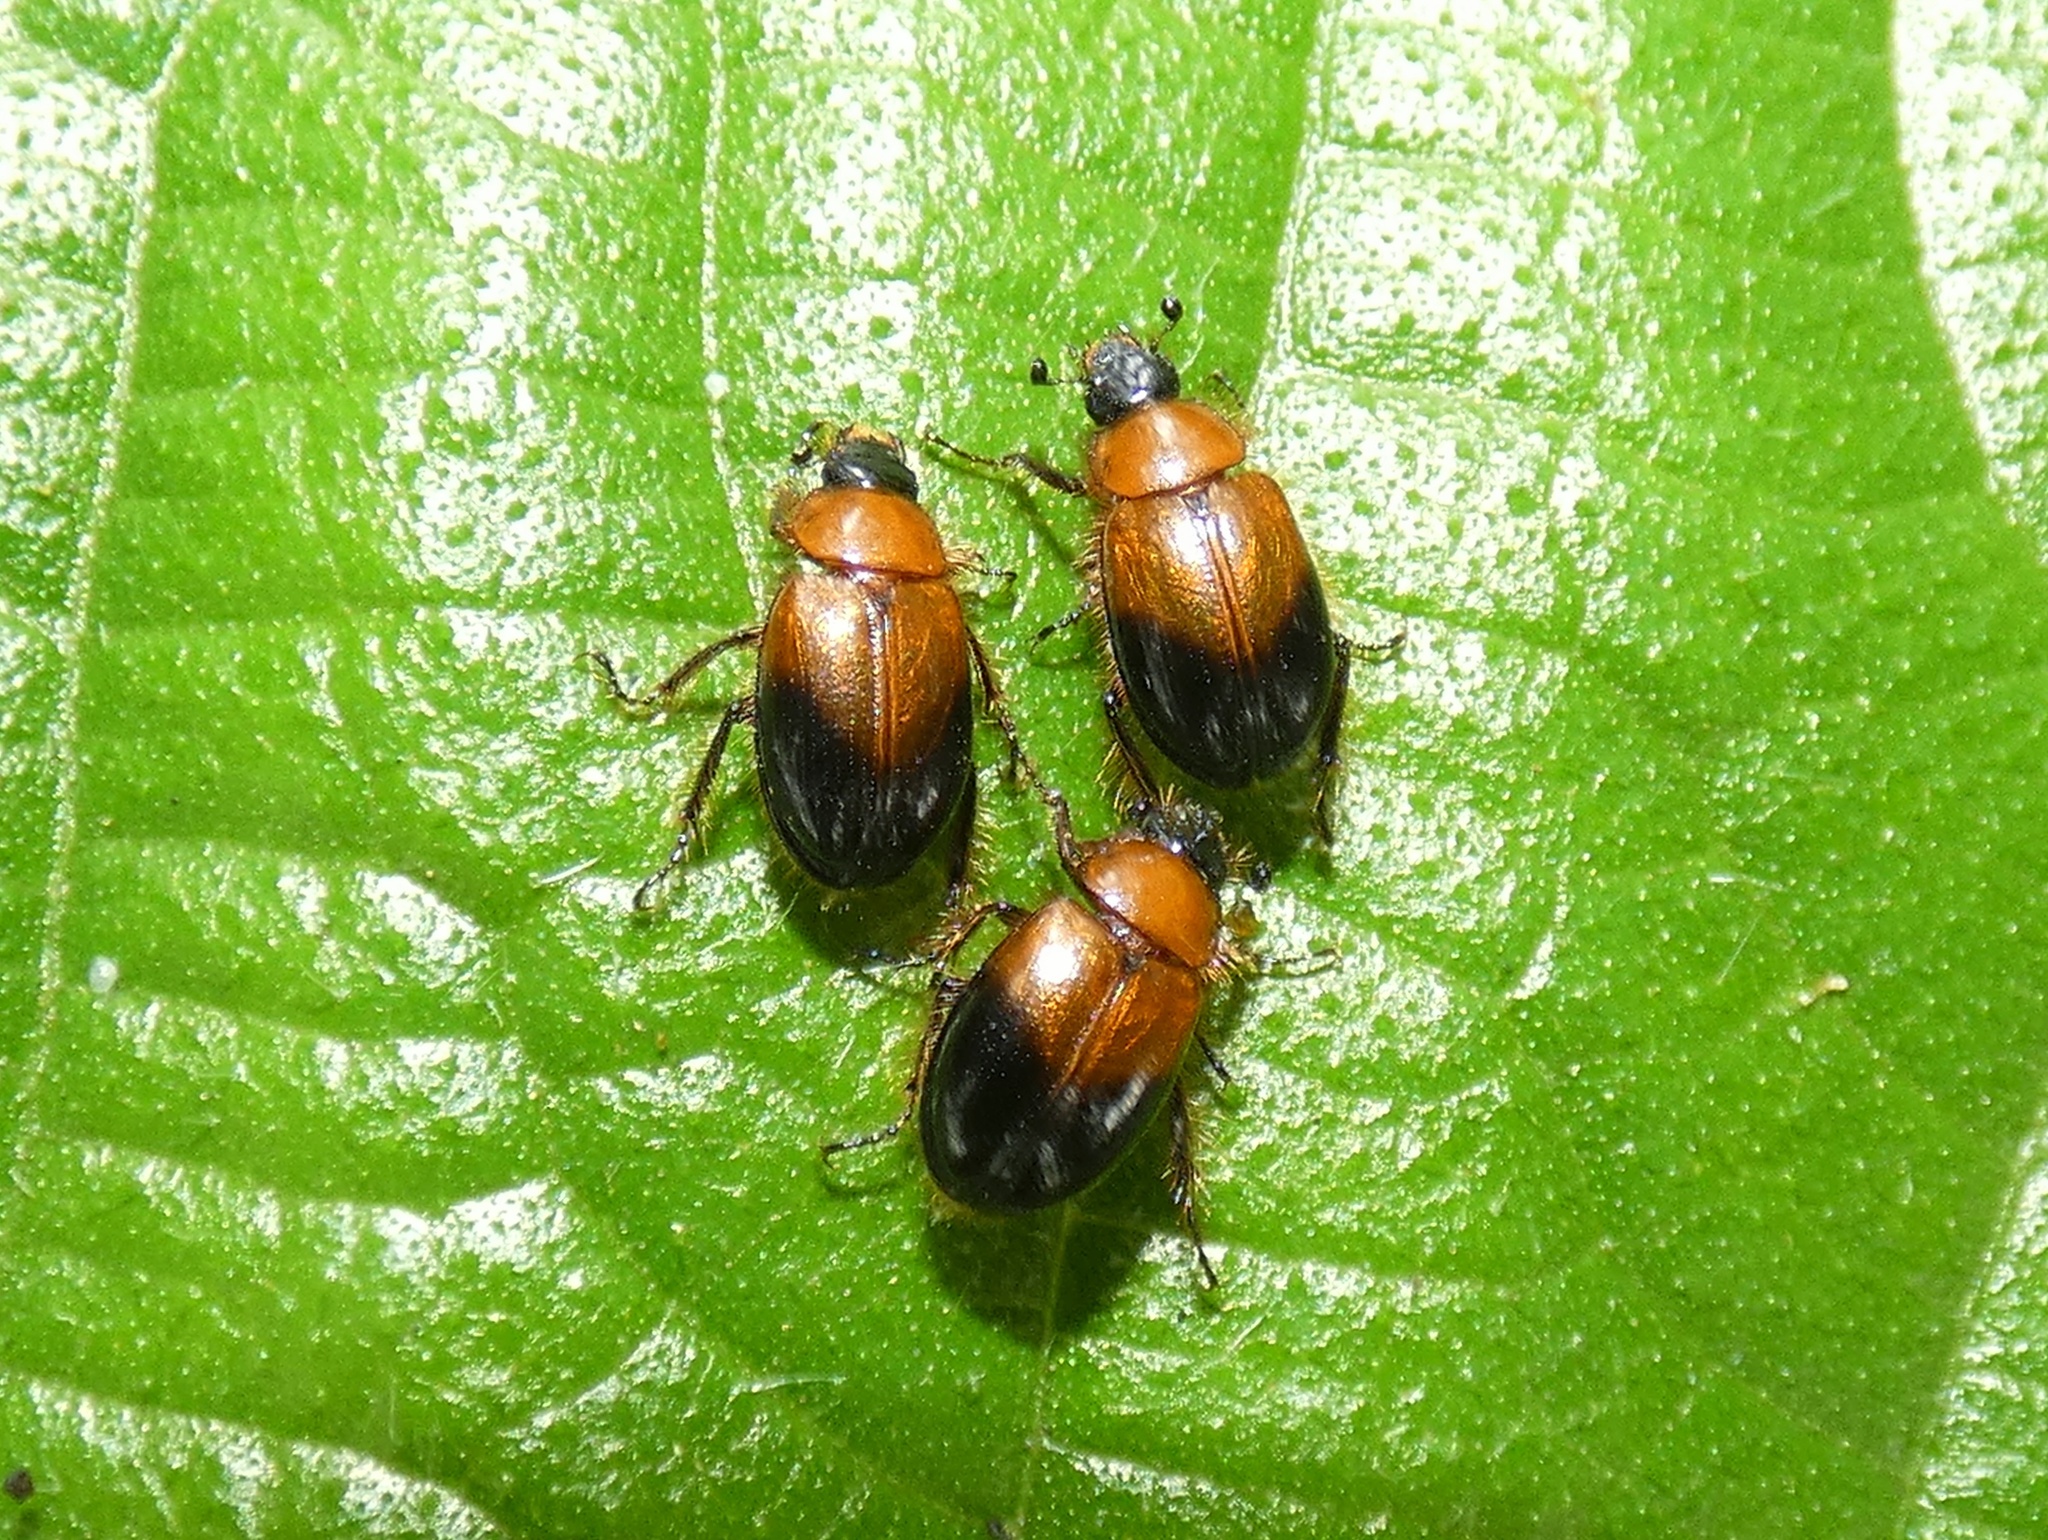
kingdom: Animalia
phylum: Arthropoda
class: Insecta
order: Coleoptera
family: Hybosoridae
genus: Dicraeodon
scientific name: Dicraeodon
